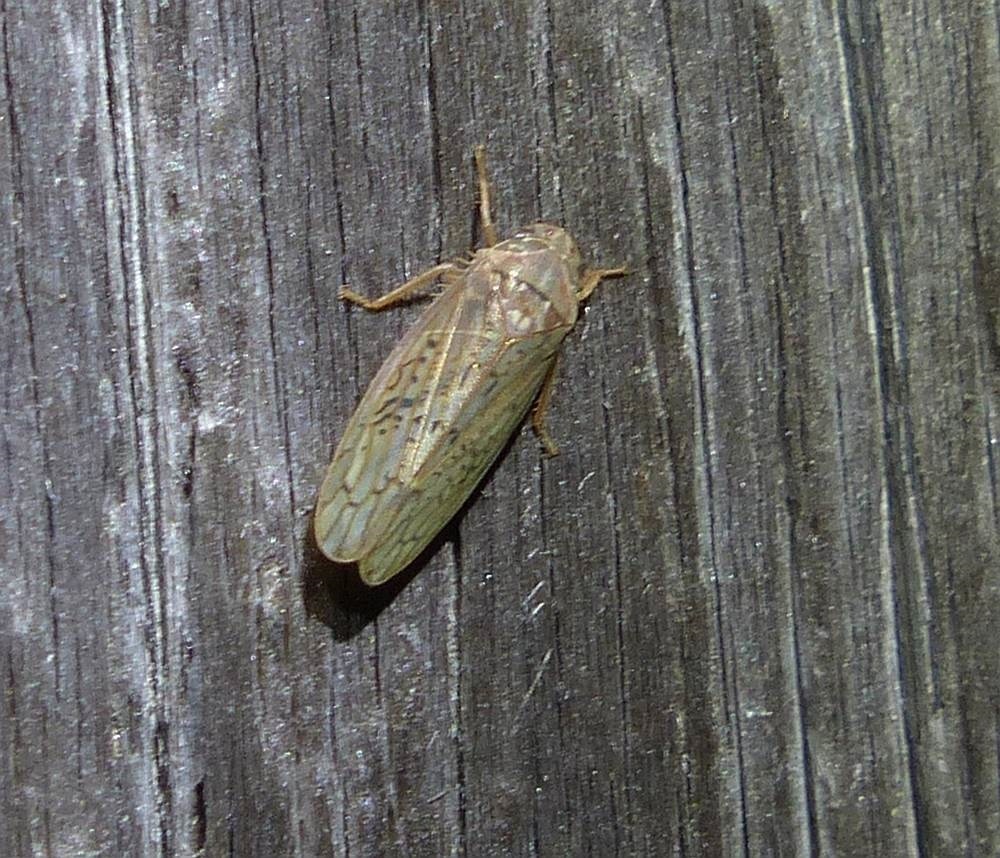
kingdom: Animalia
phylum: Arthropoda
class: Insecta
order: Hemiptera
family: Cicadellidae
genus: Ponana
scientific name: Ponana rubida
